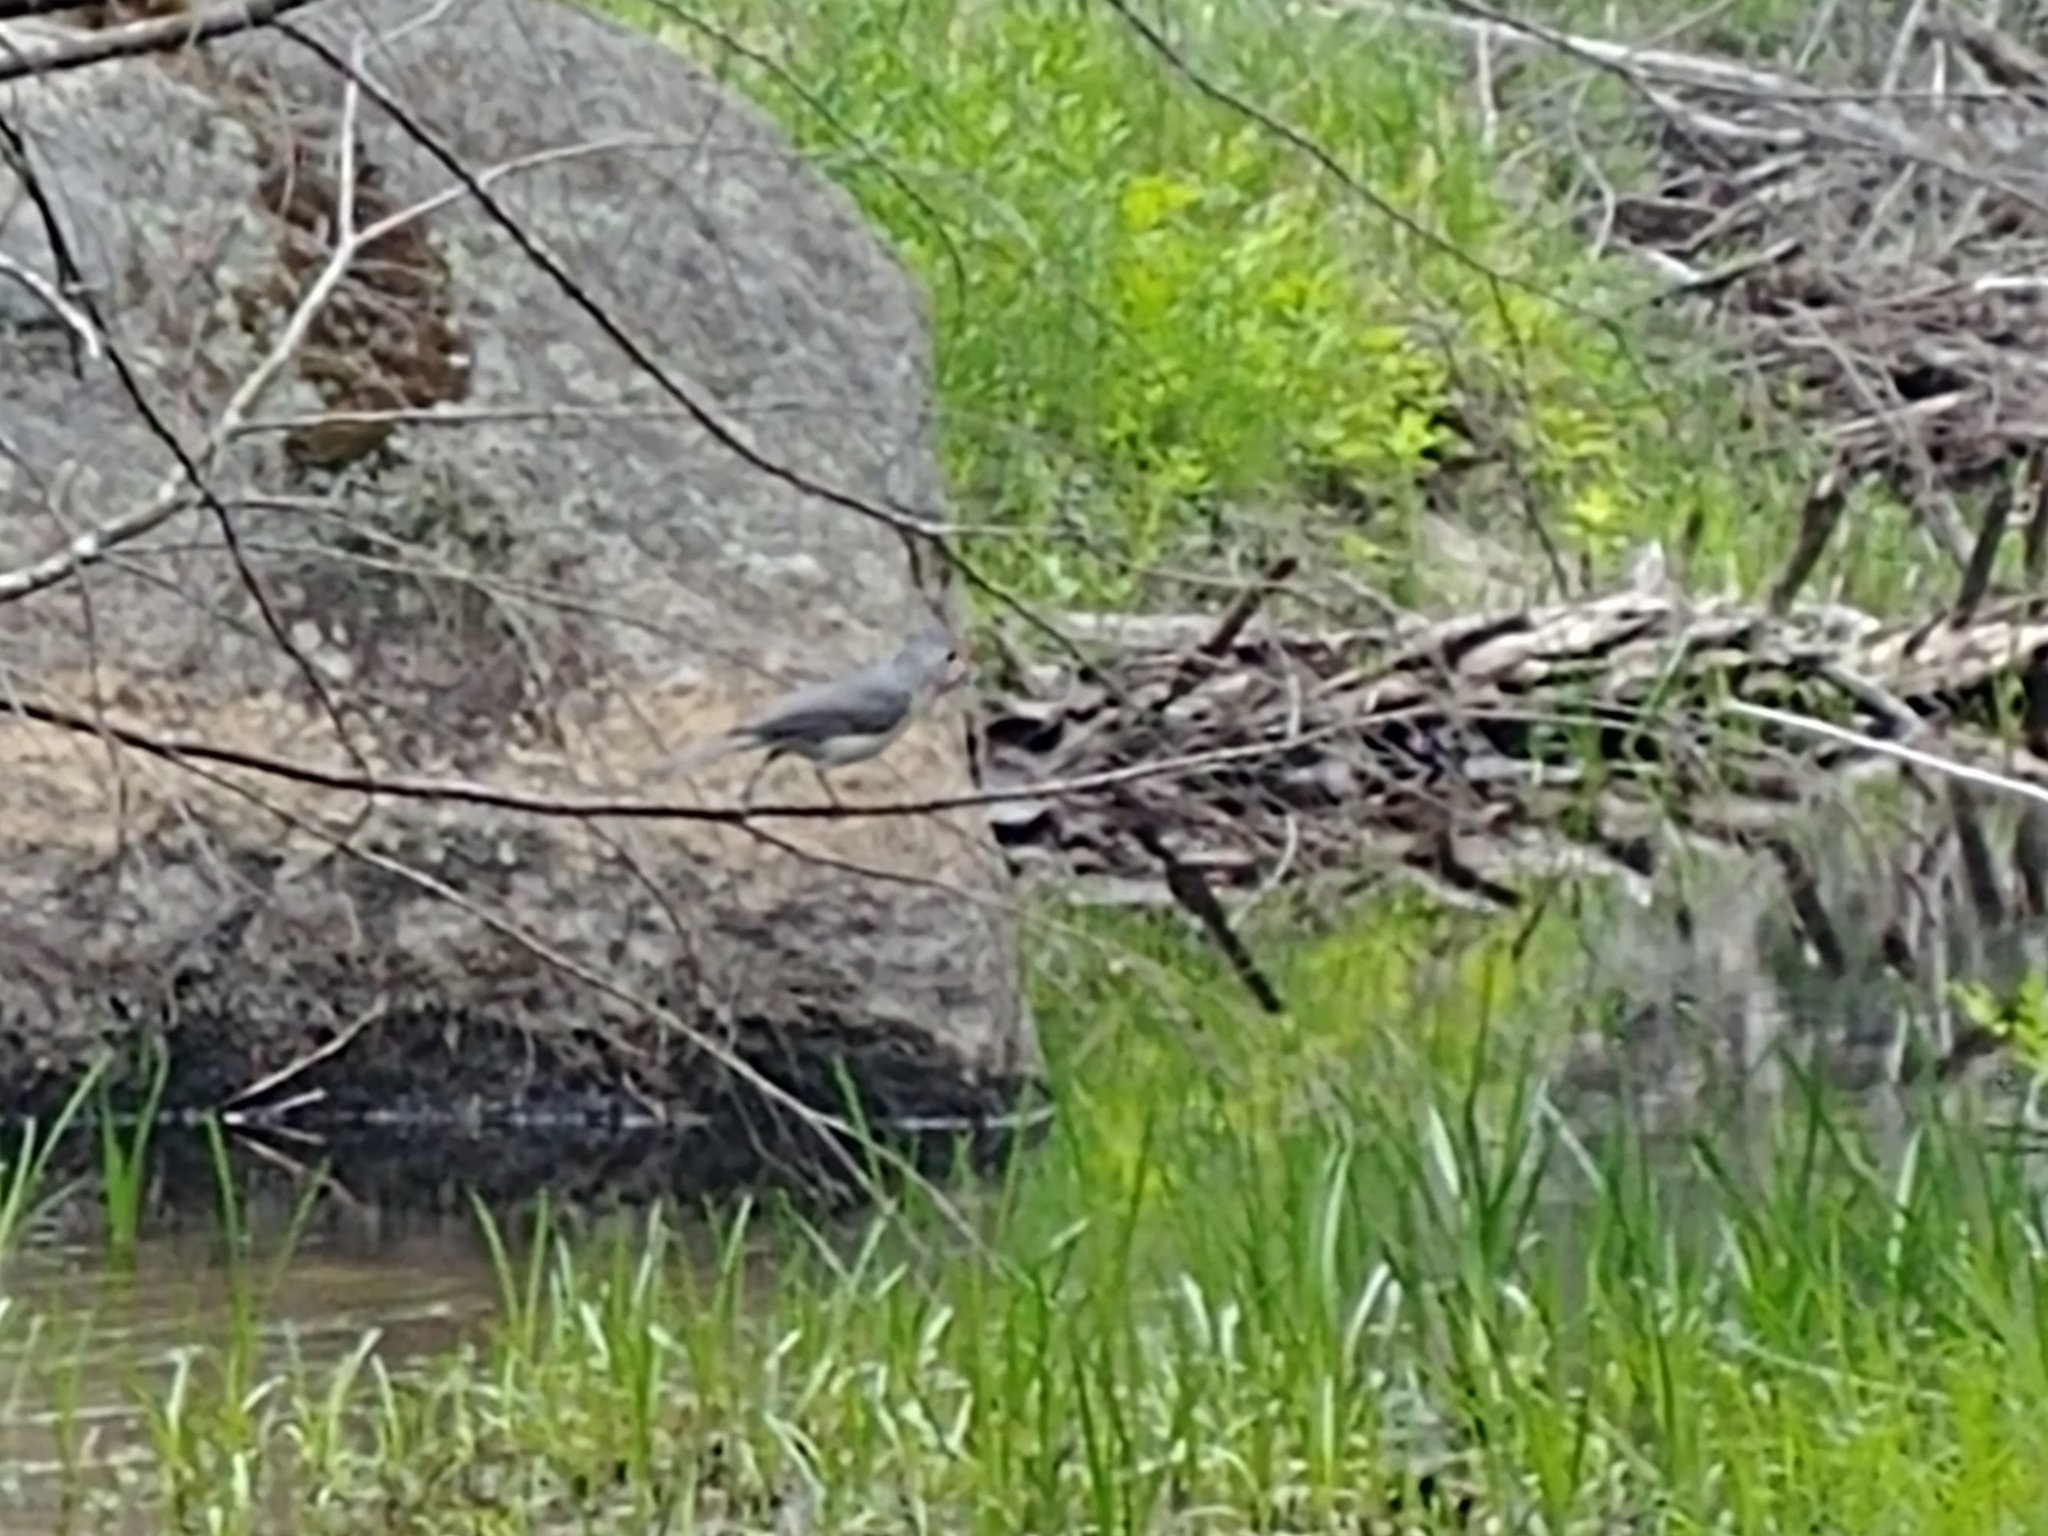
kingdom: Animalia
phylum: Chordata
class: Aves
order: Passeriformes
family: Paridae
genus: Baeolophus
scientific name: Baeolophus bicolor
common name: Tufted titmouse
